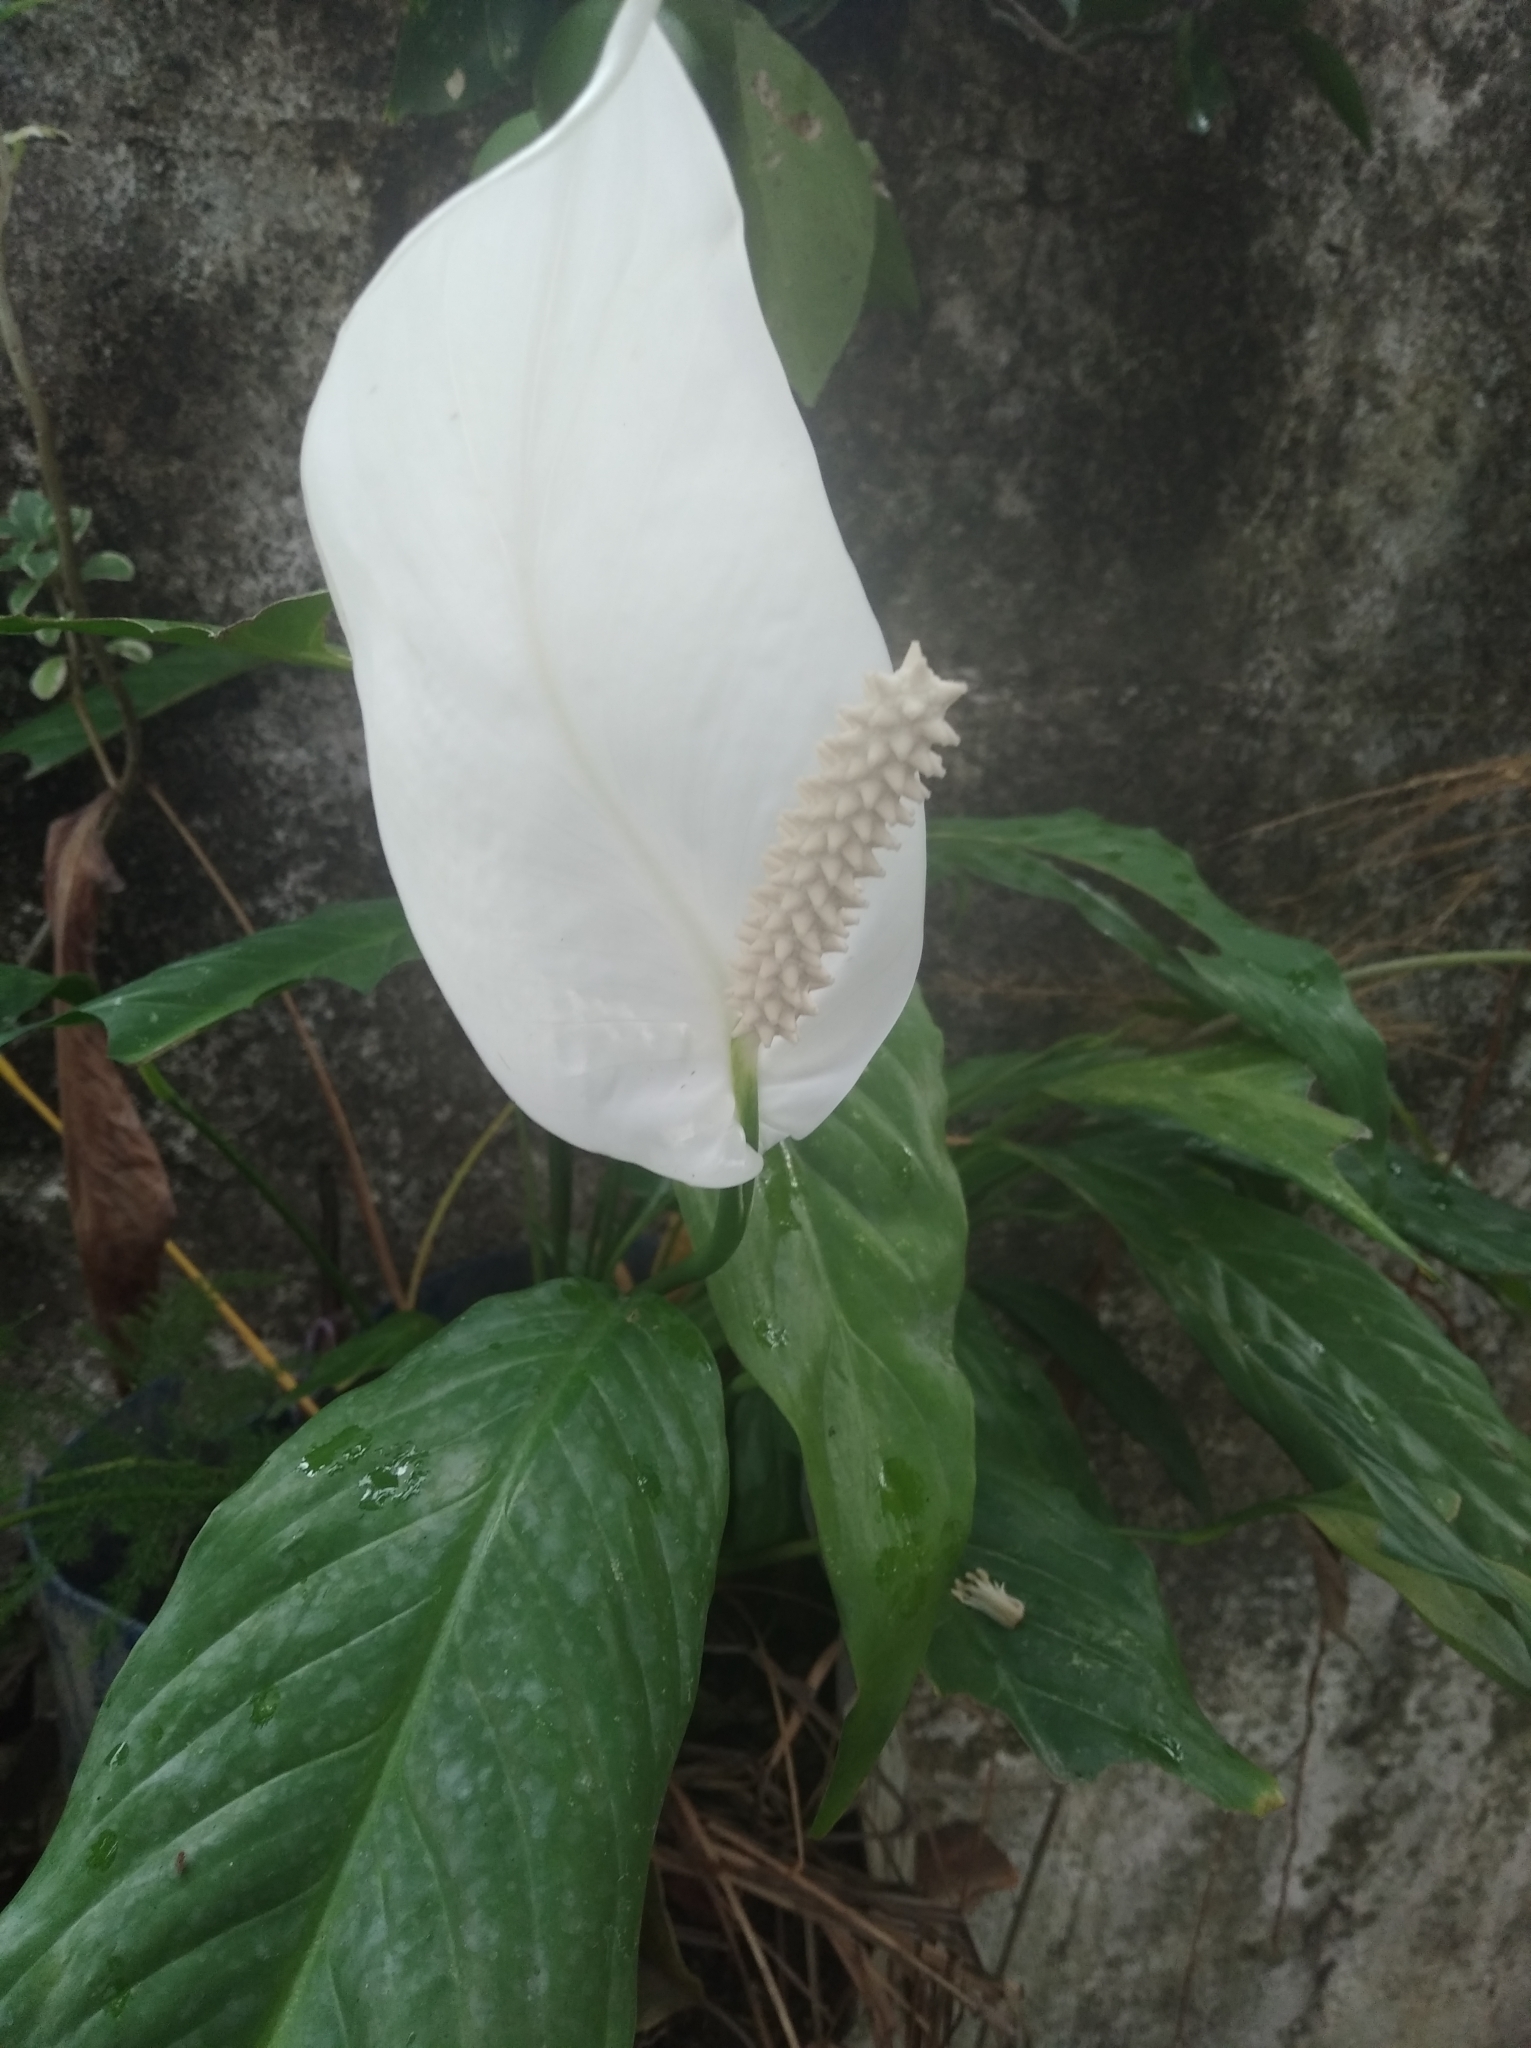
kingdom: Plantae
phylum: Tracheophyta
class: Liliopsida
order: Alismatales
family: Araceae
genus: Spathiphyllum
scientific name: Spathiphyllum wallisii
